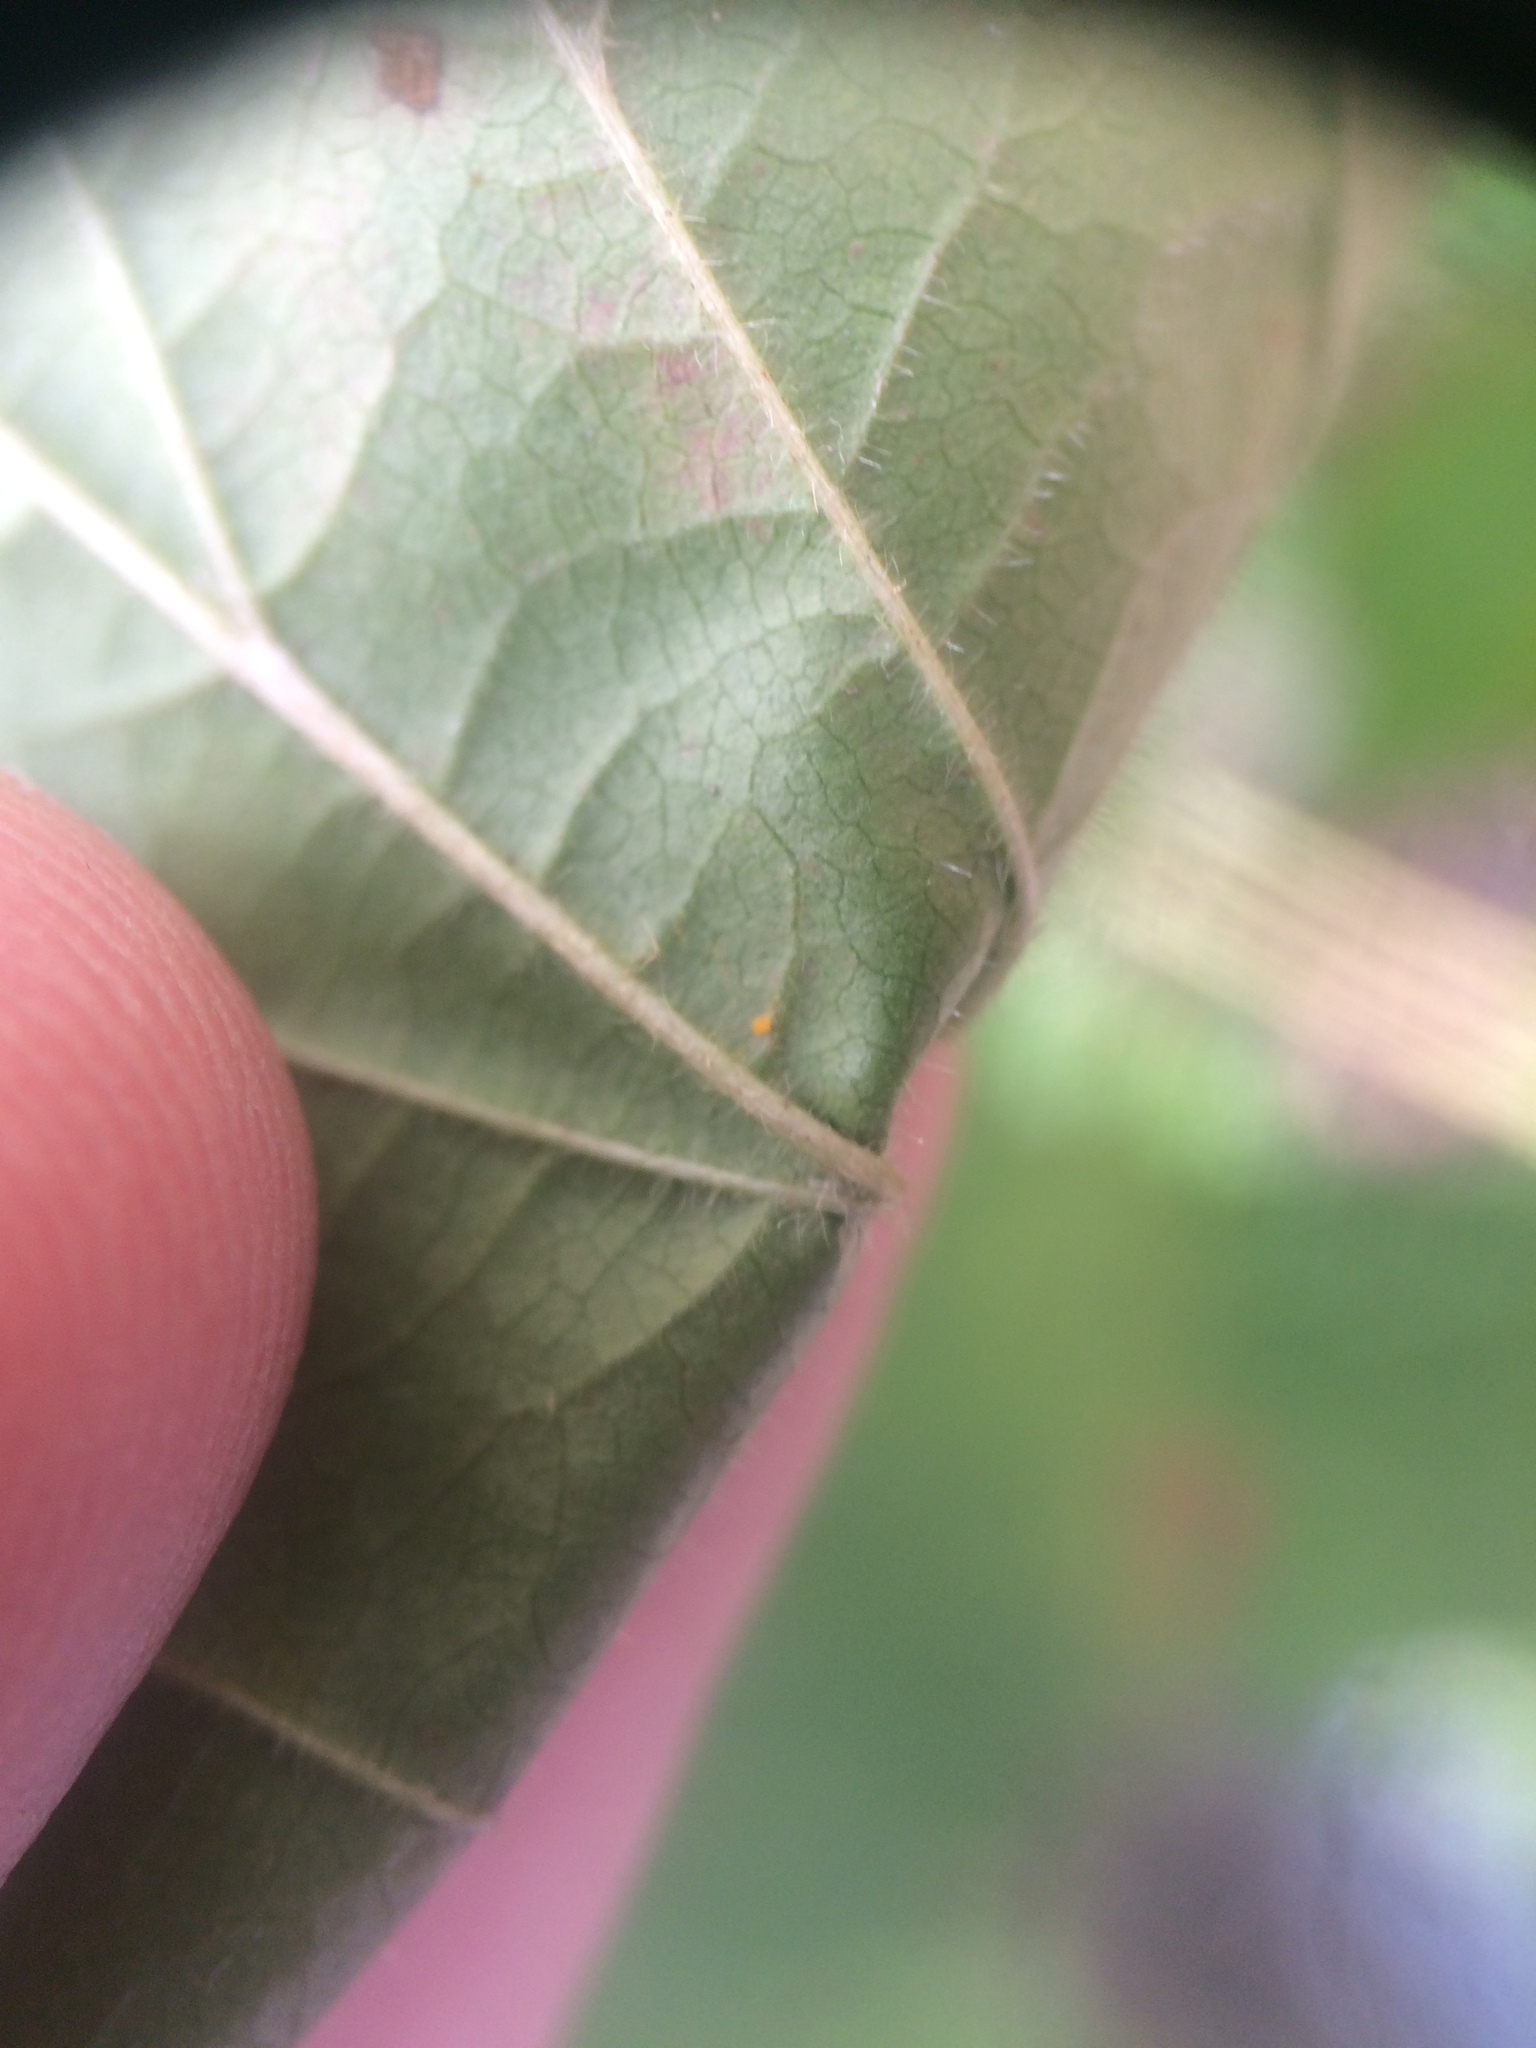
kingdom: Plantae
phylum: Tracheophyta
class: Magnoliopsida
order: Rosales
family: Rosaceae
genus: Rubus
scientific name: Rubus pensilvanicus
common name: Pennsylvania blackberry
